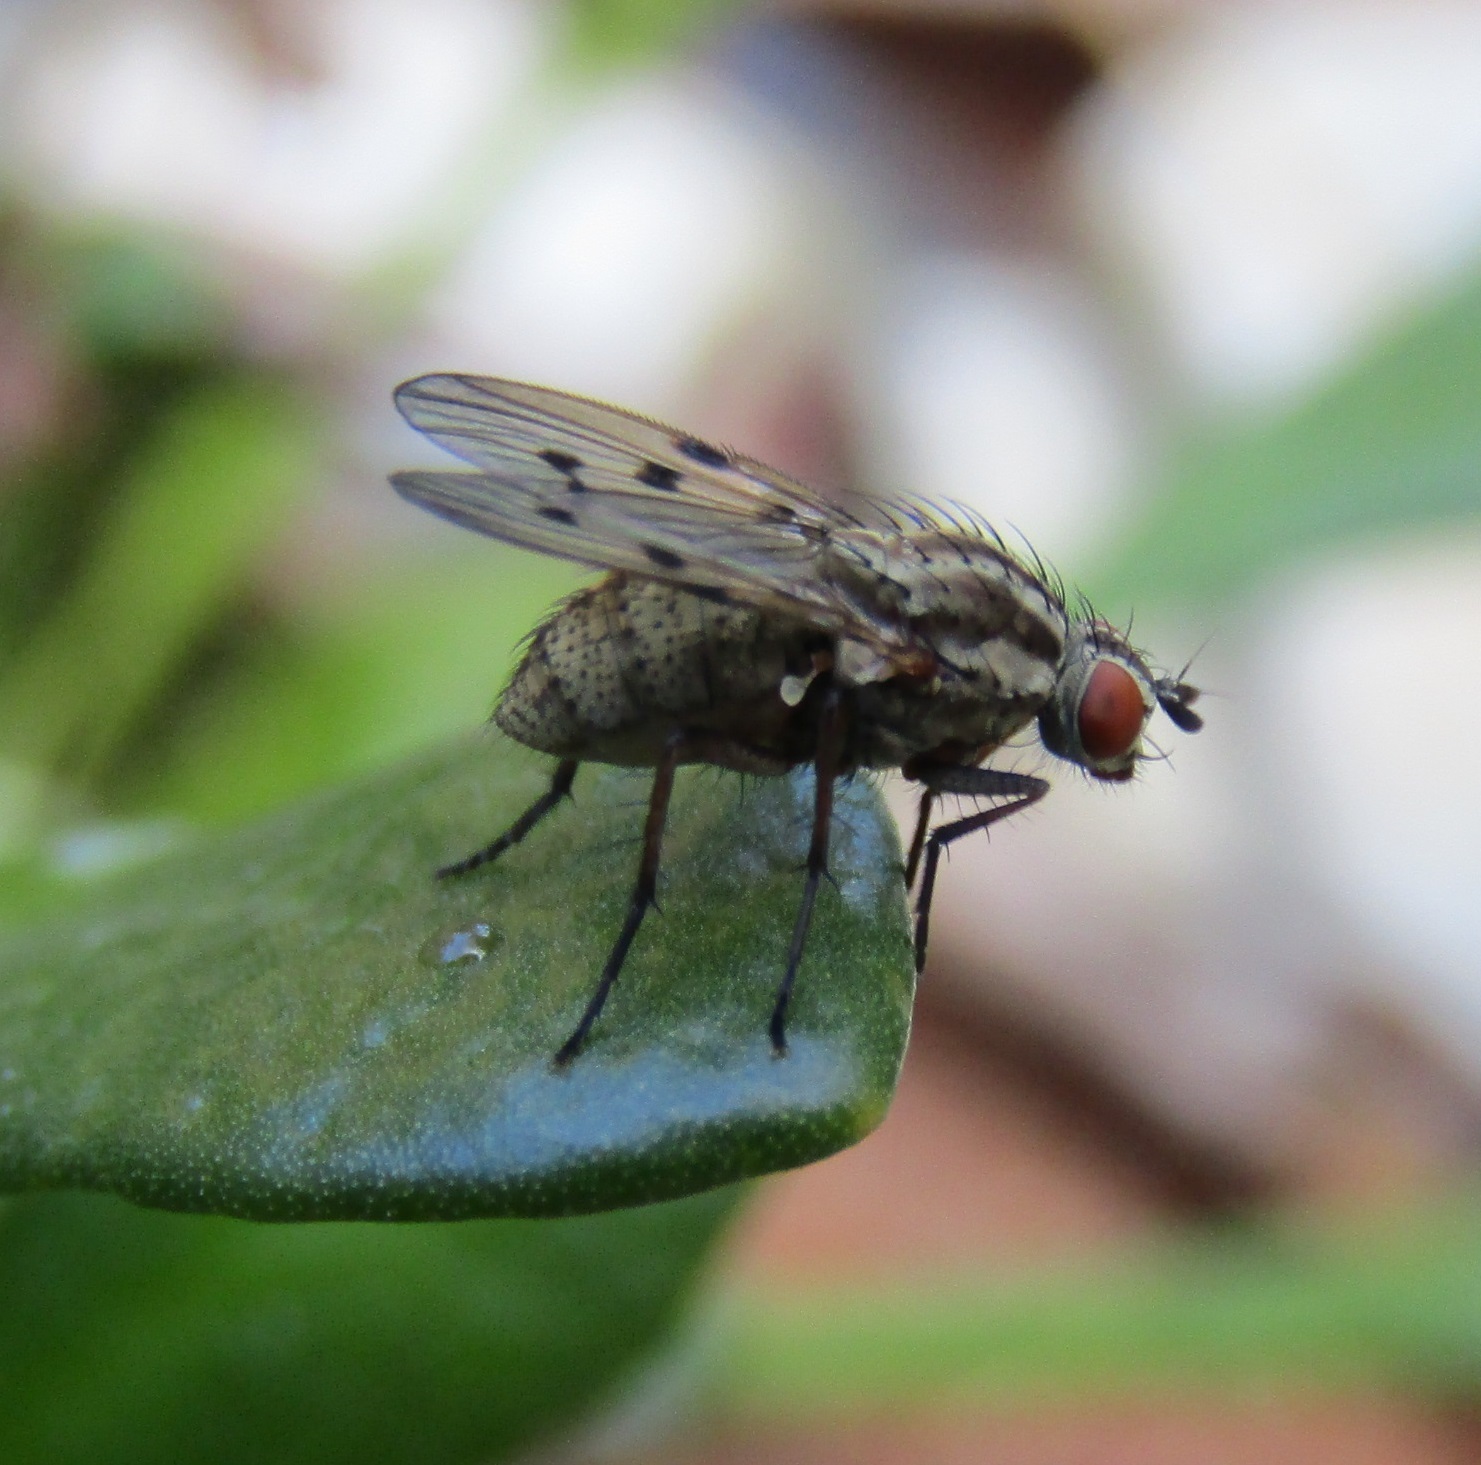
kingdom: Animalia
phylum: Arthropoda
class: Insecta
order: Diptera
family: Anthomyiidae
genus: Anthomyia
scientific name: Anthomyia punctipennis
